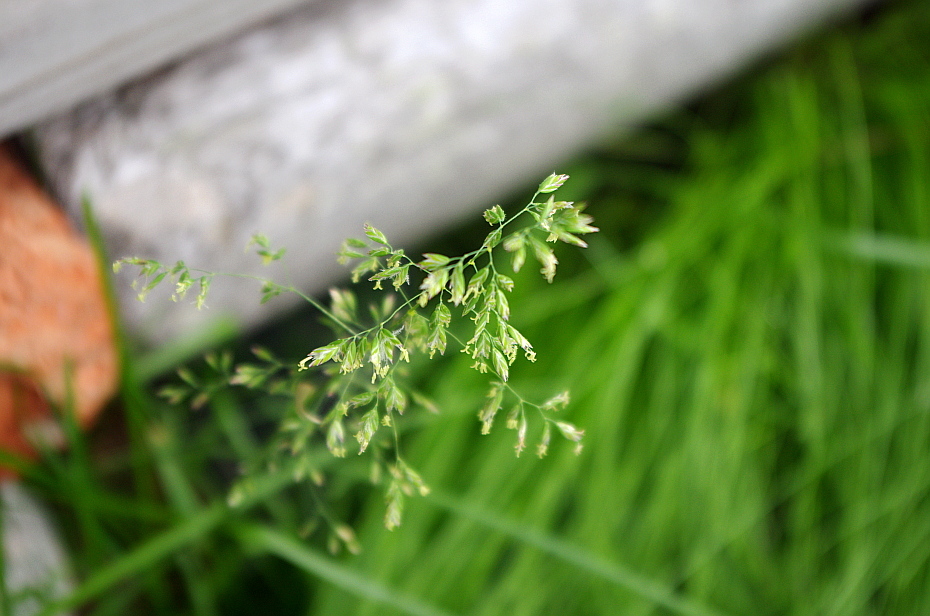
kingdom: Plantae
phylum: Tracheophyta
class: Liliopsida
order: Poales
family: Poaceae
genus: Poa
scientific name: Poa pratensis
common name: Kentucky bluegrass
